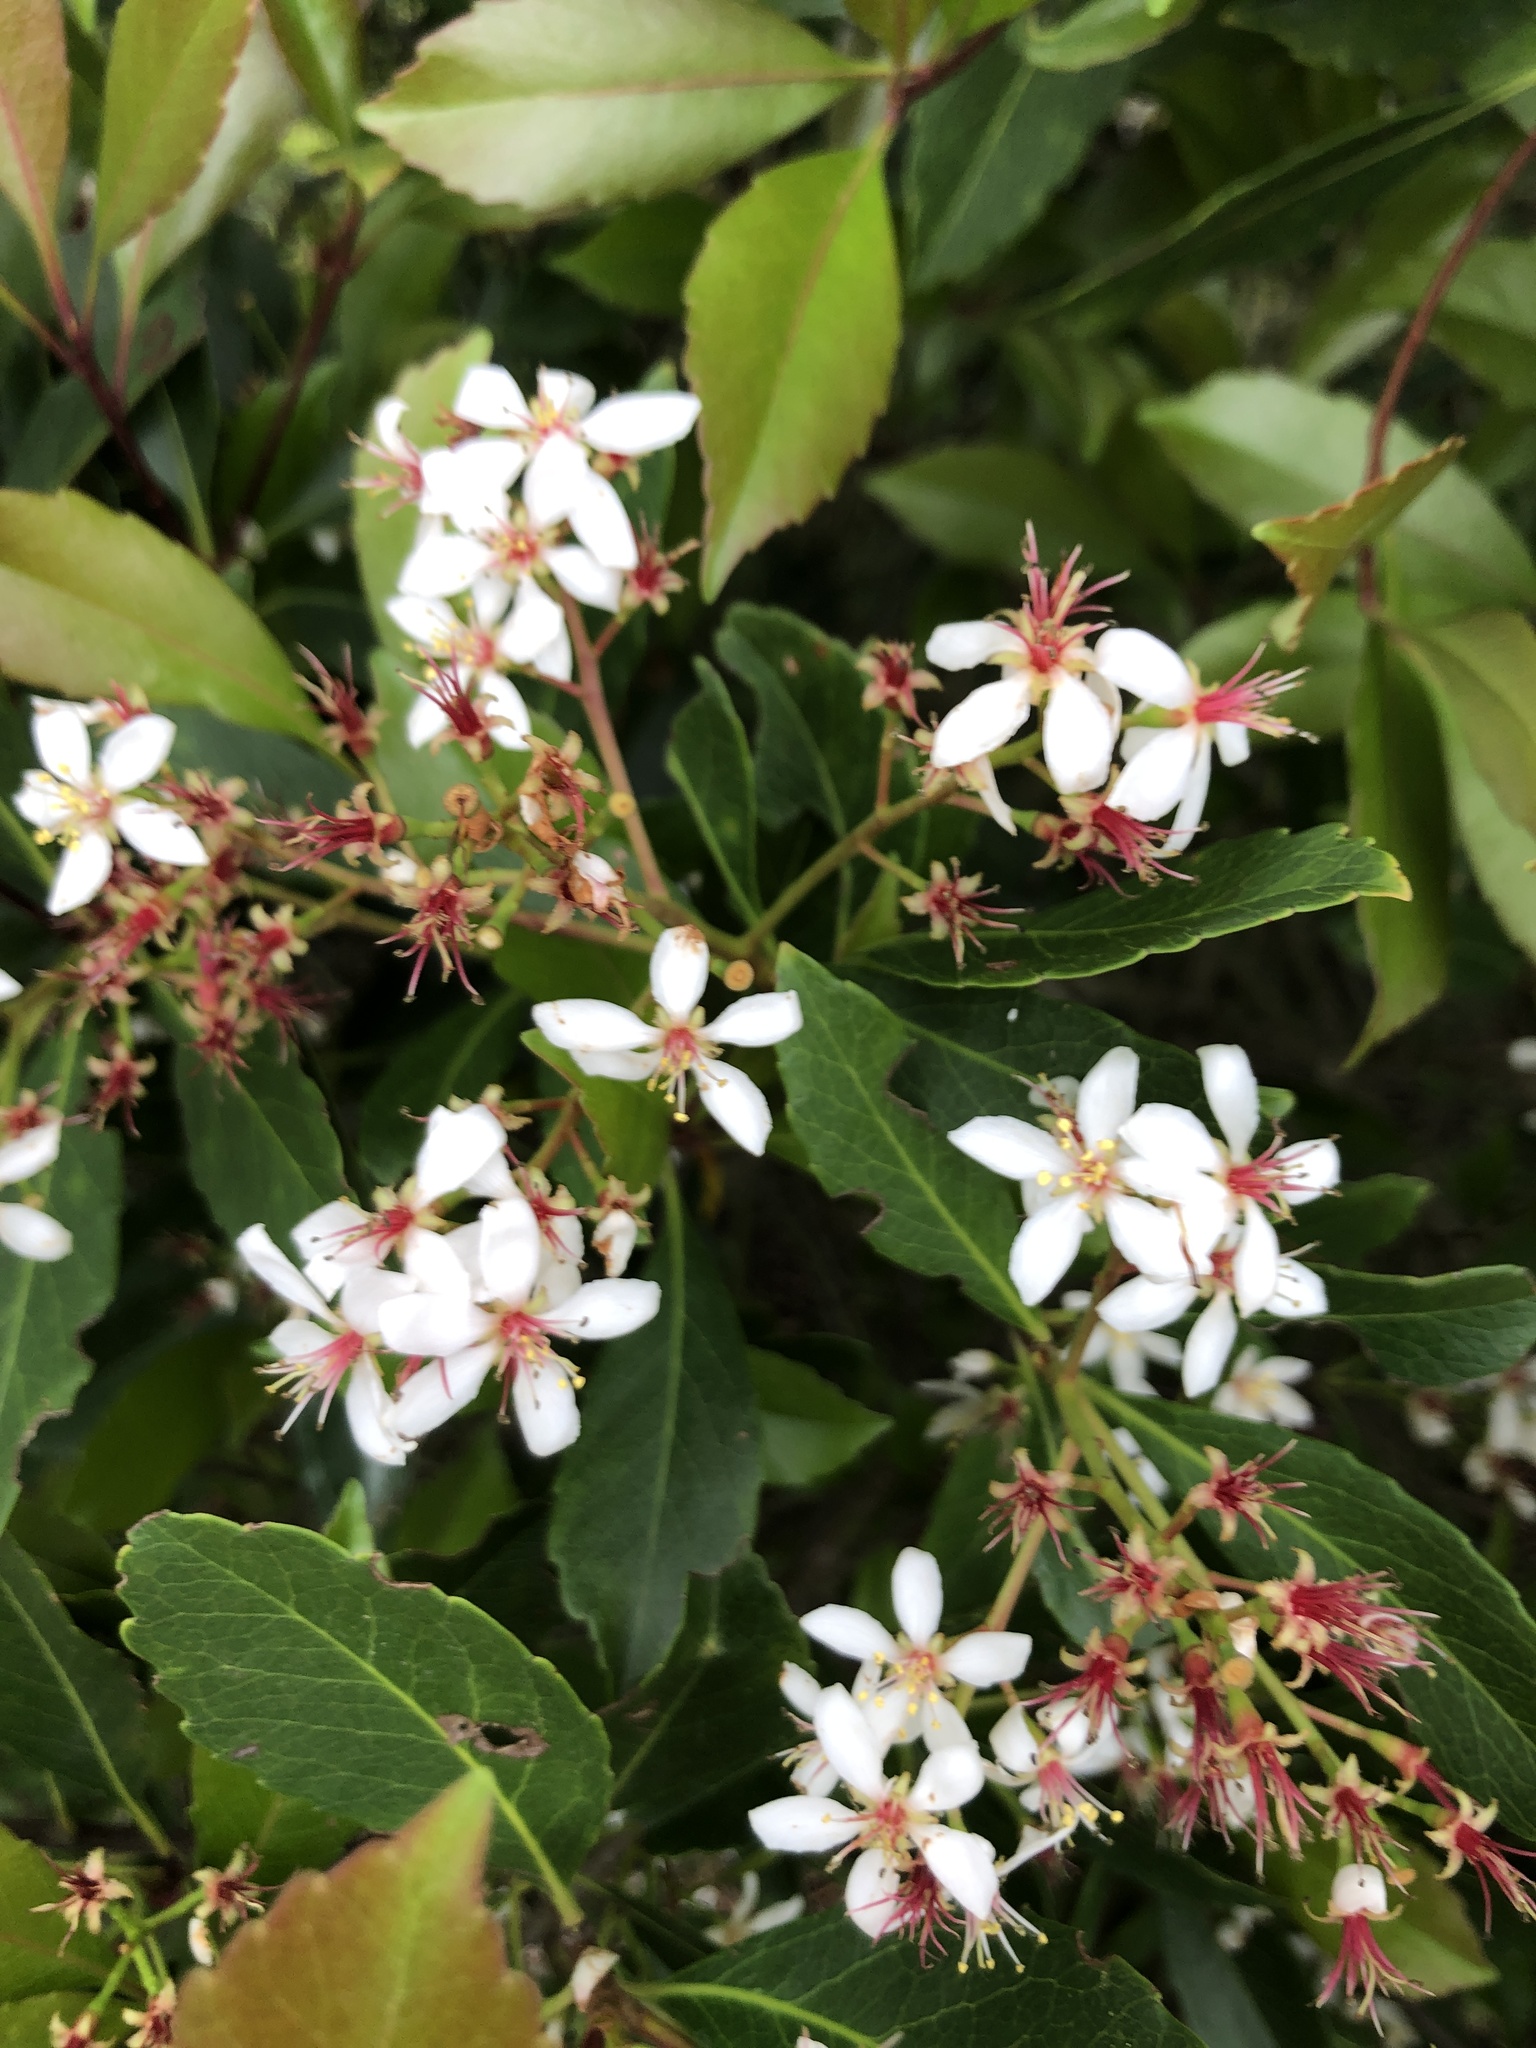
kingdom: Plantae
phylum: Tracheophyta
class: Magnoliopsida
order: Rosales
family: Rosaceae
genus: Rhaphiolepis
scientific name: Rhaphiolepis indica
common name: India-hawthorn
